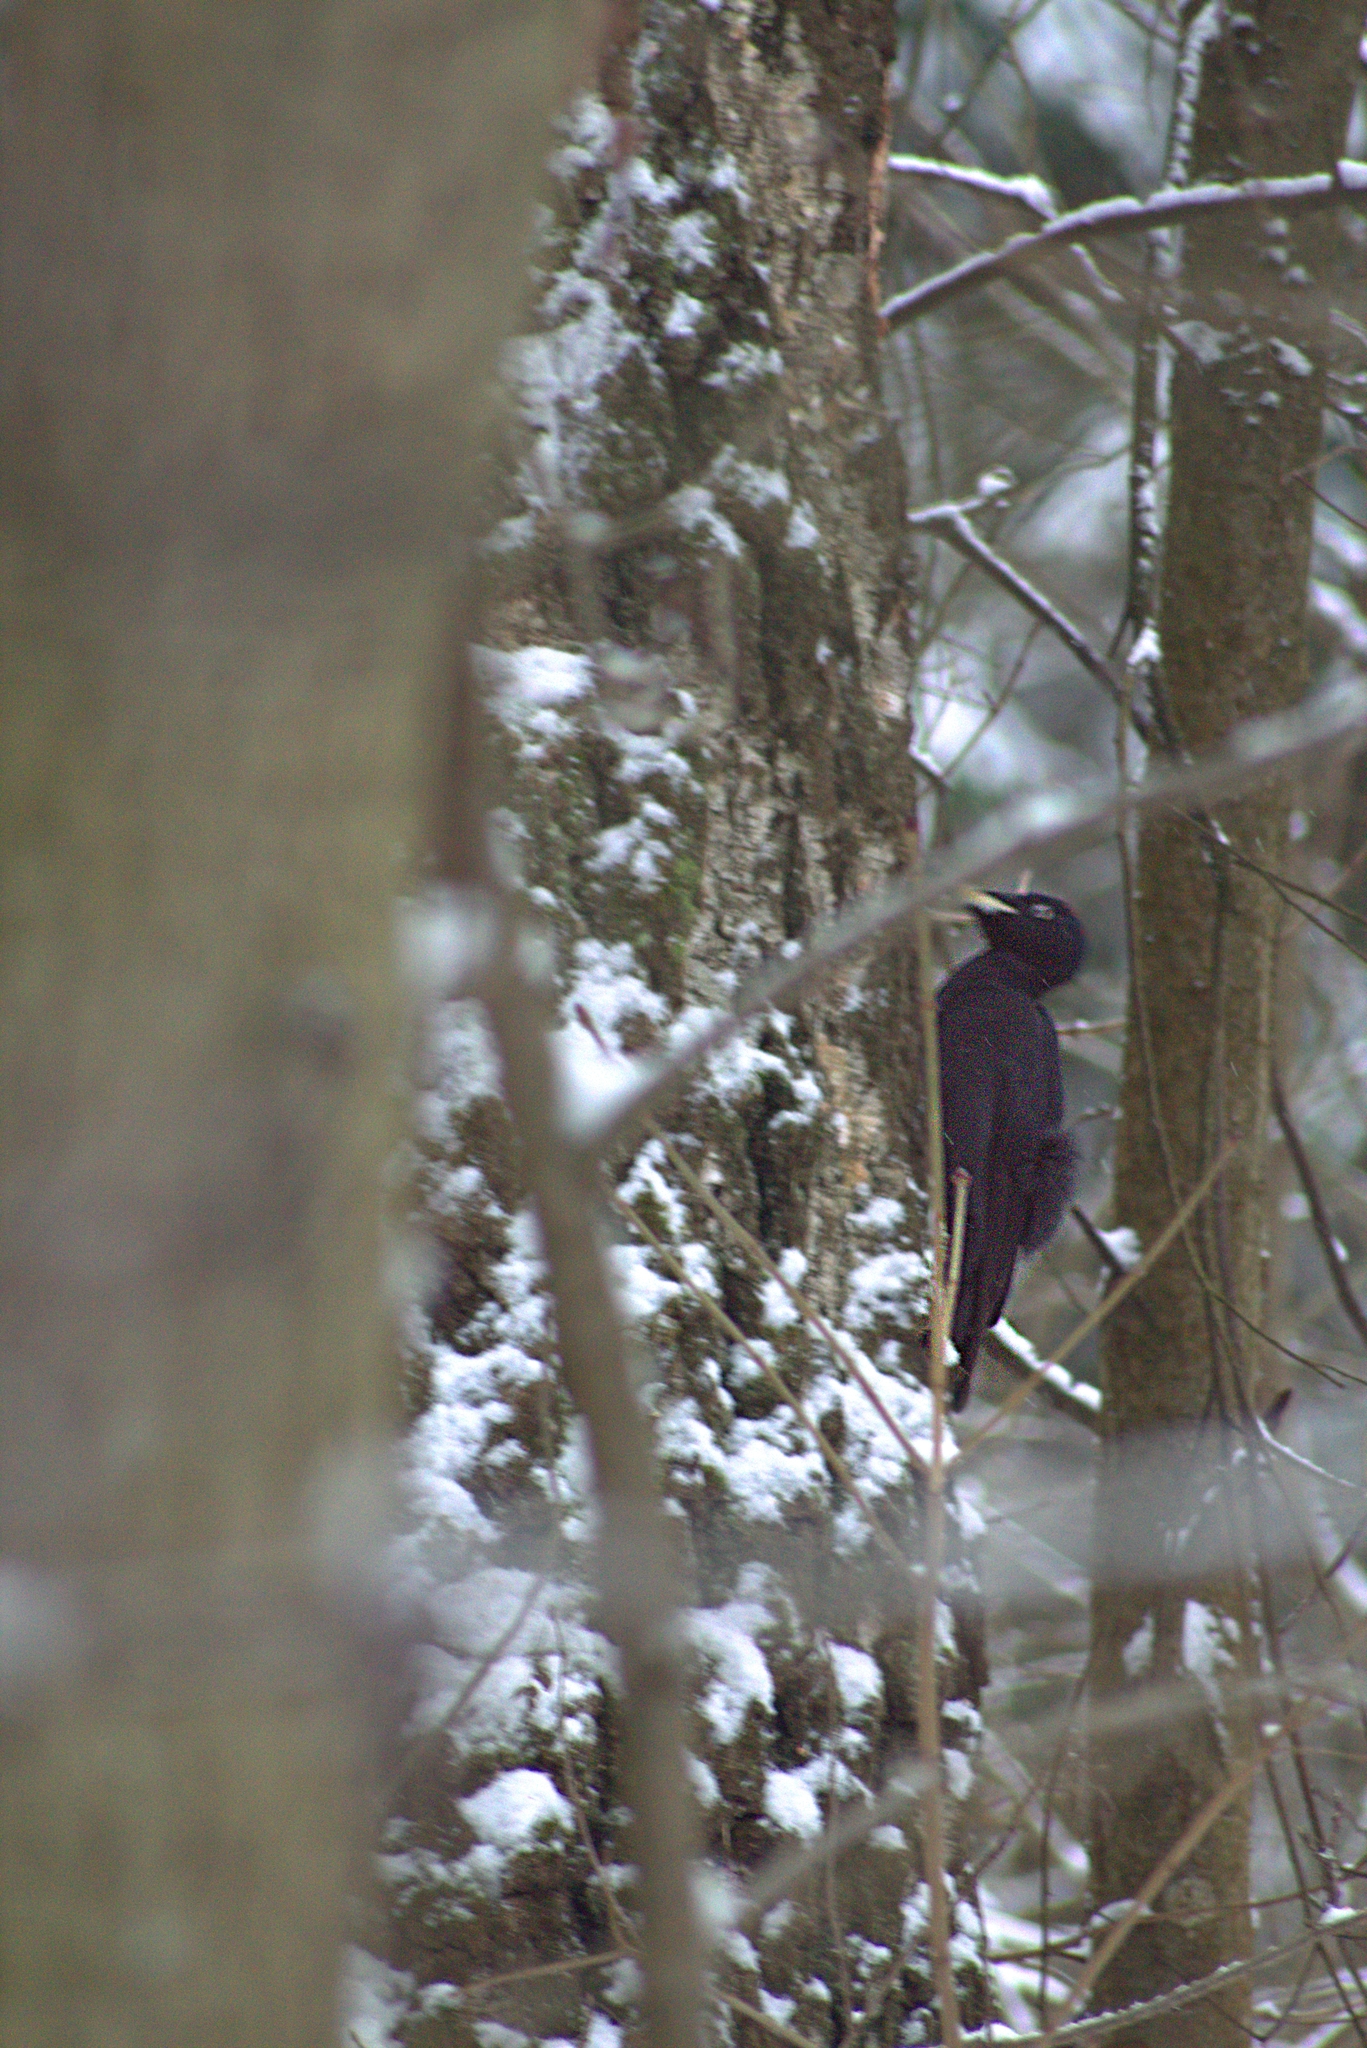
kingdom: Animalia
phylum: Chordata
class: Aves
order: Piciformes
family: Picidae
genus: Dryocopus
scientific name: Dryocopus martius
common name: Black woodpecker
